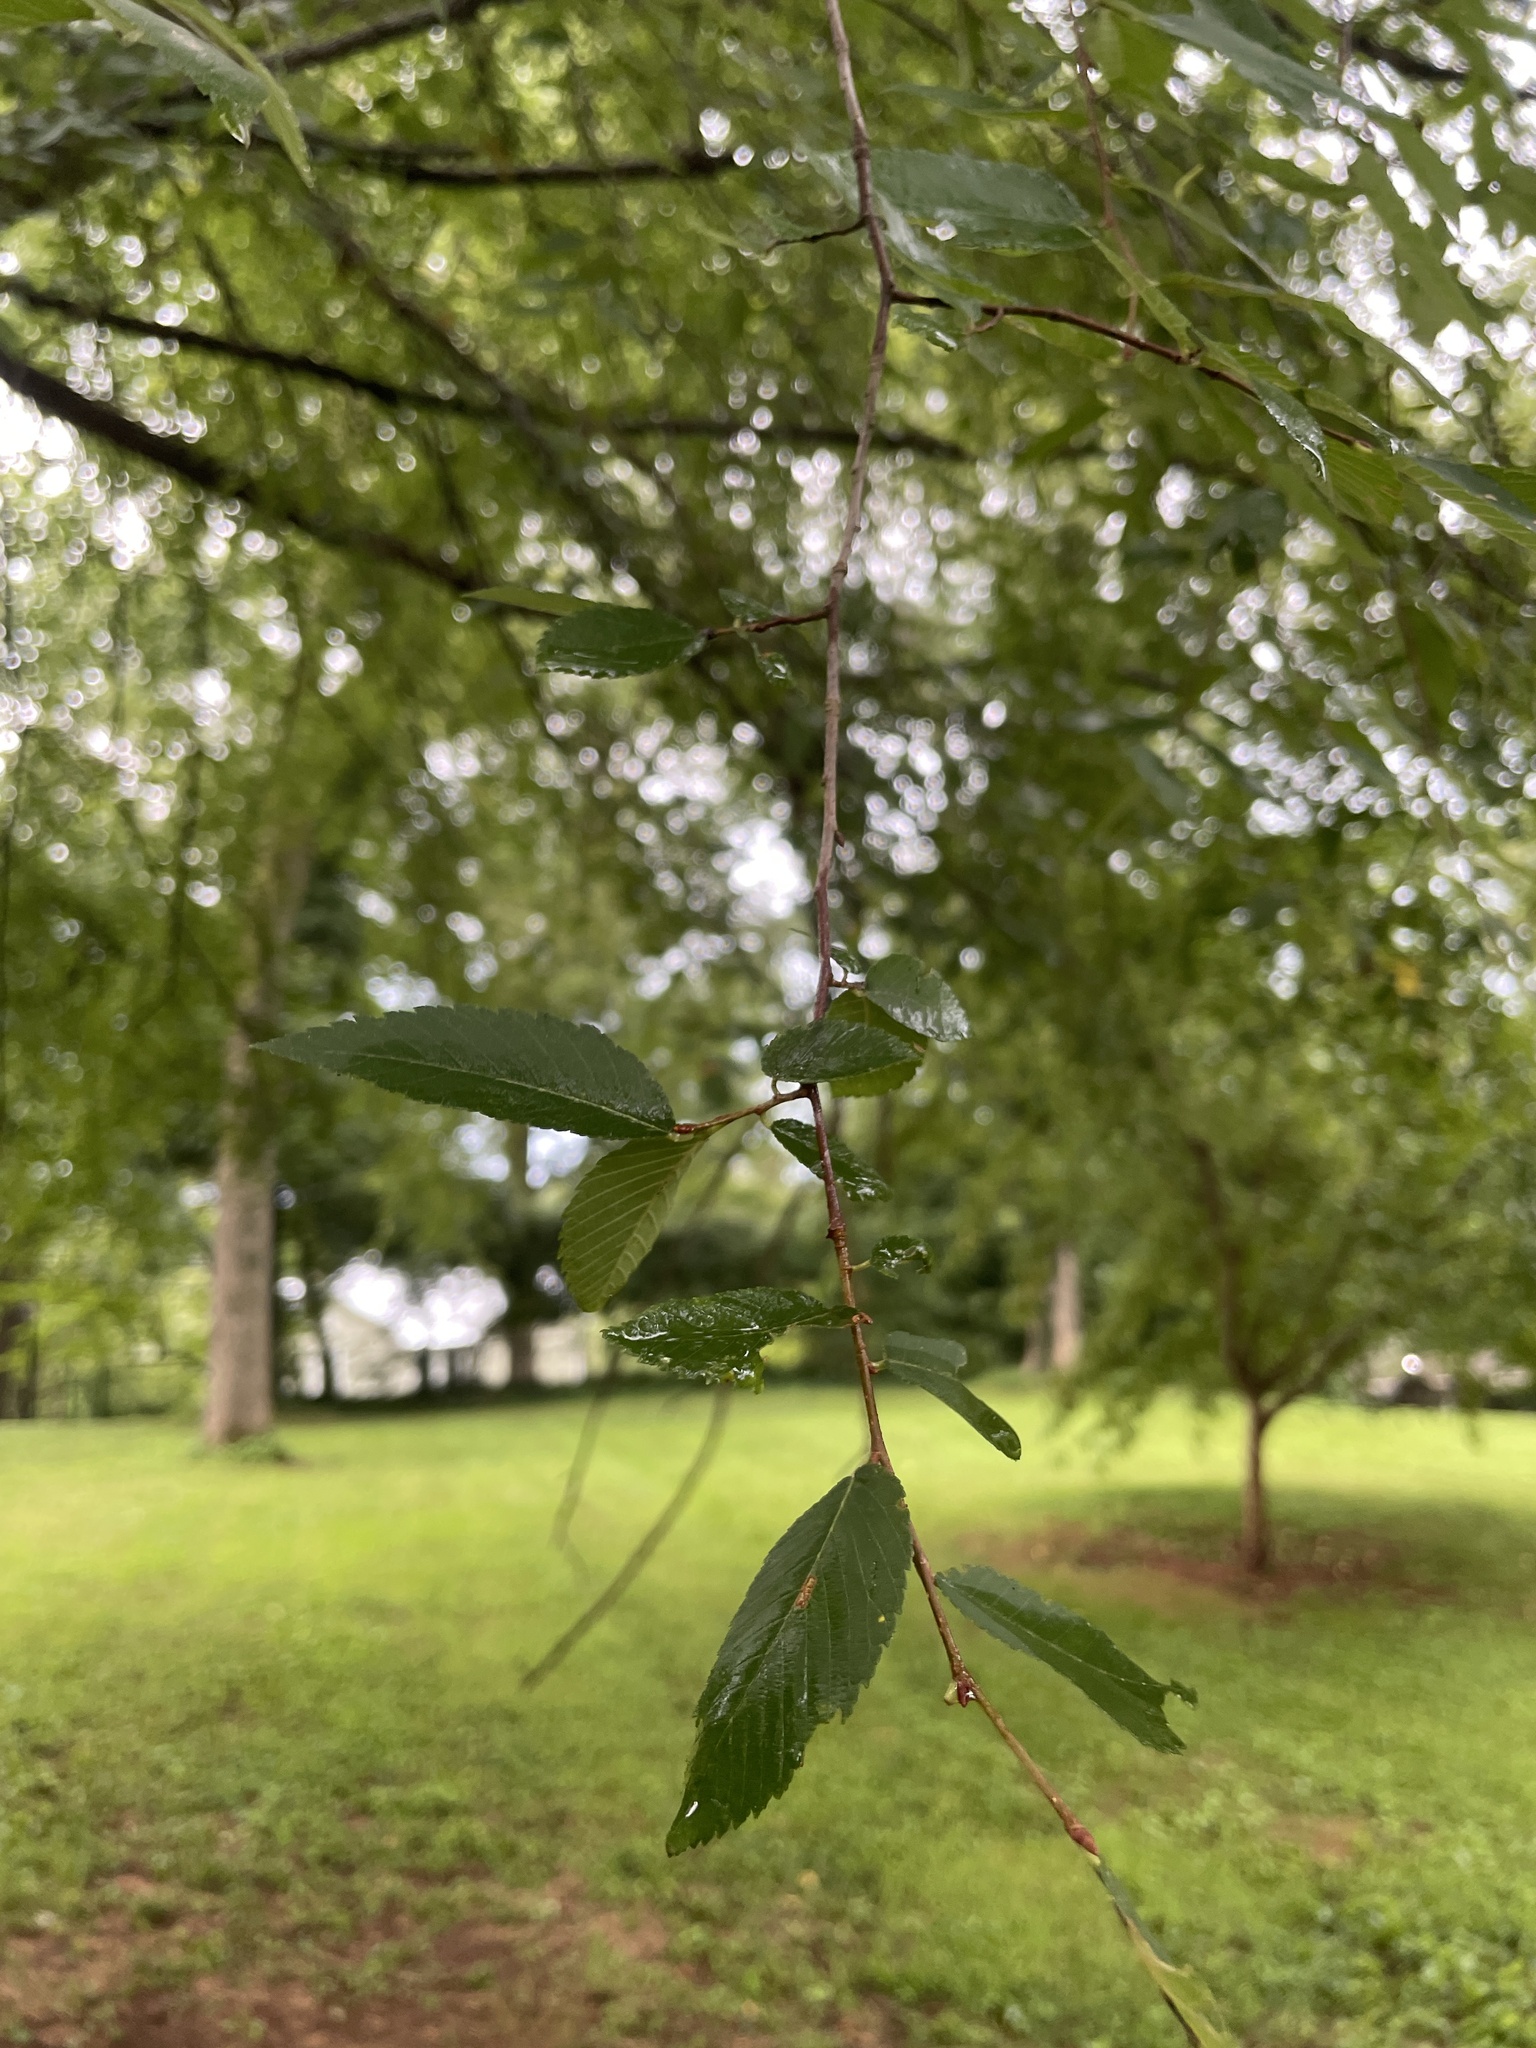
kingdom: Plantae
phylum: Tracheophyta
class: Magnoliopsida
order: Rosales
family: Ulmaceae
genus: Ulmus
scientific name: Ulmus alata
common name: Winged elm
